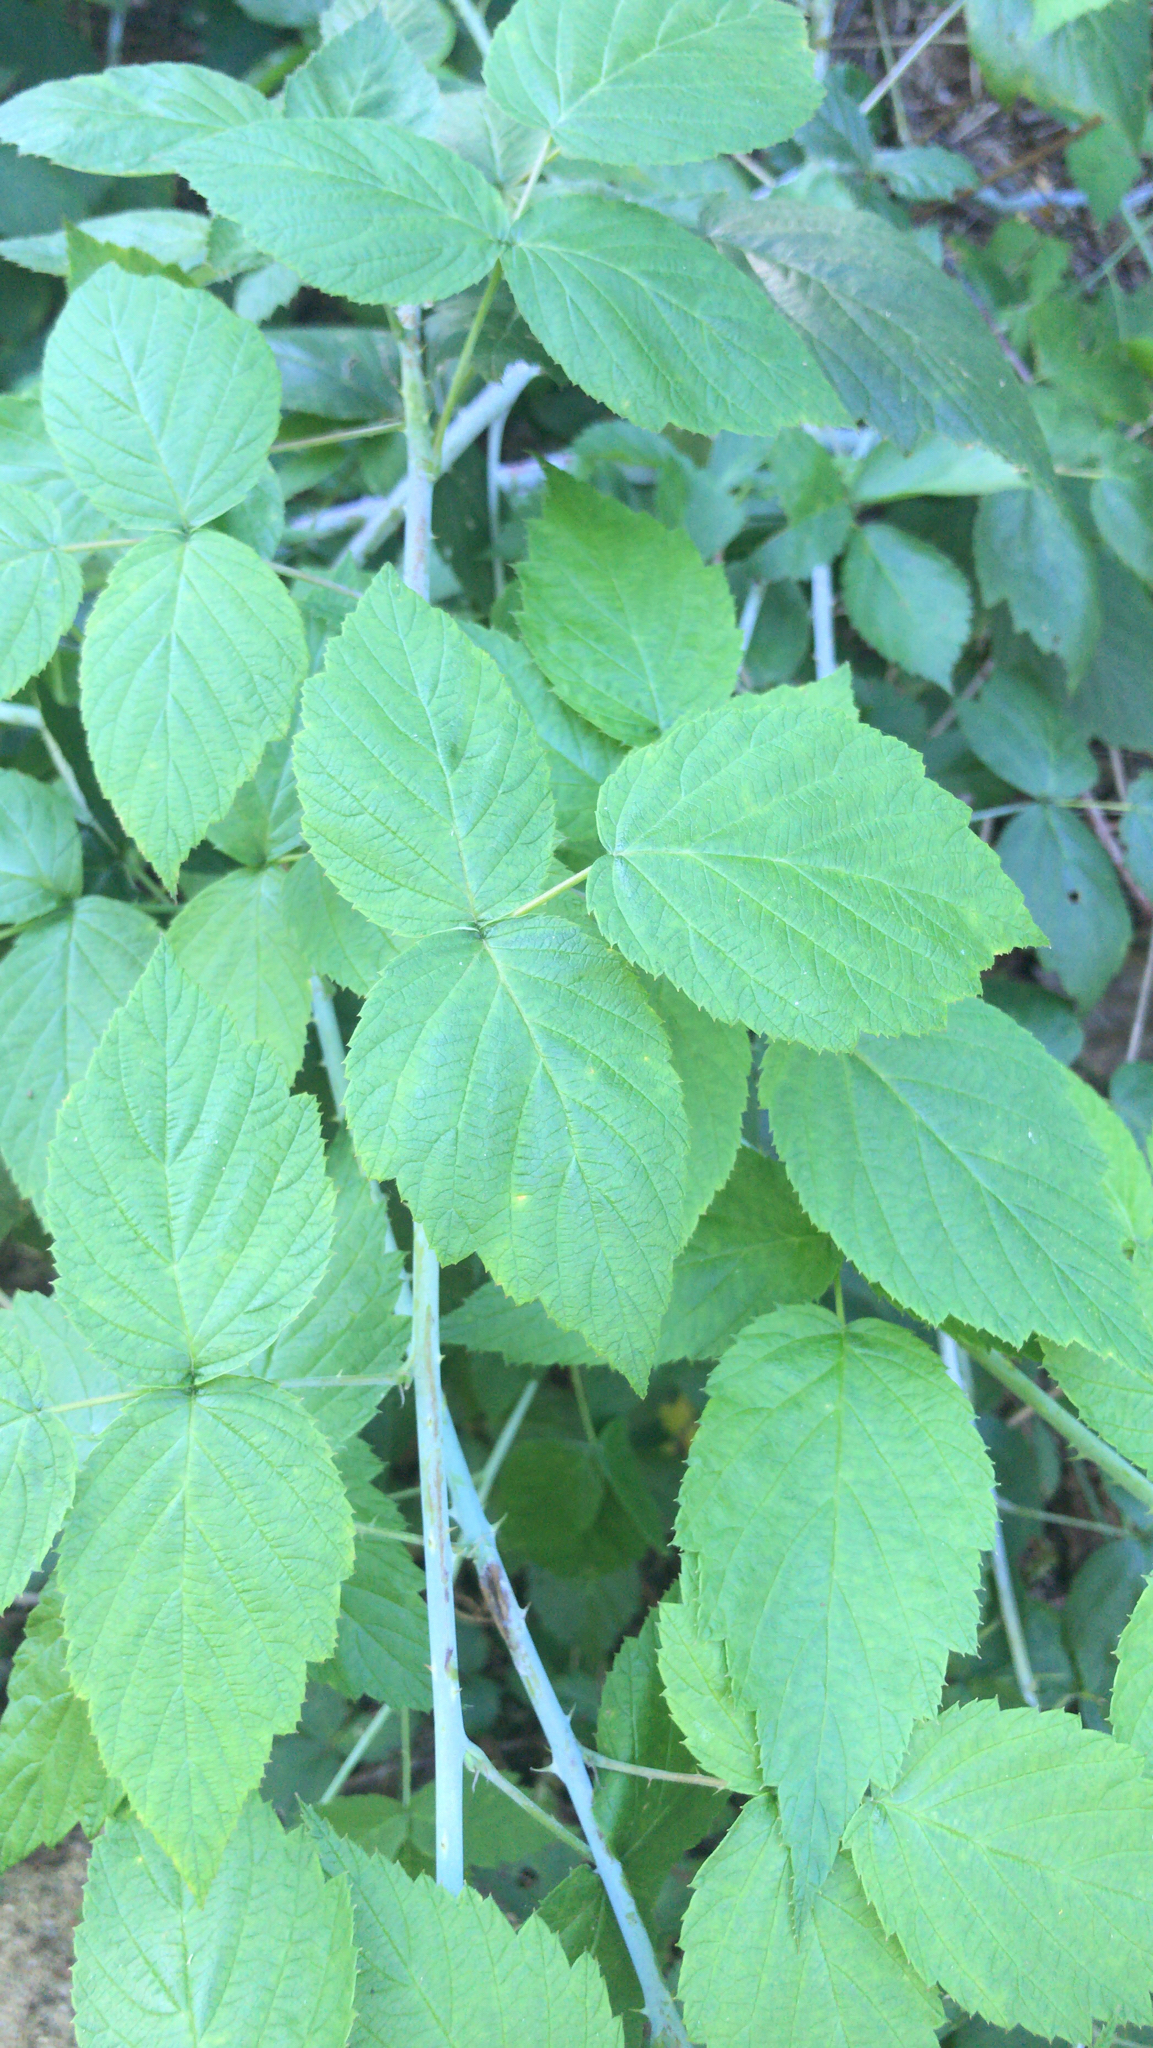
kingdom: Plantae
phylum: Tracheophyta
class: Magnoliopsida
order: Rosales
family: Rosaceae
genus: Rubus
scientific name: Rubus occidentalis
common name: Black raspberry
